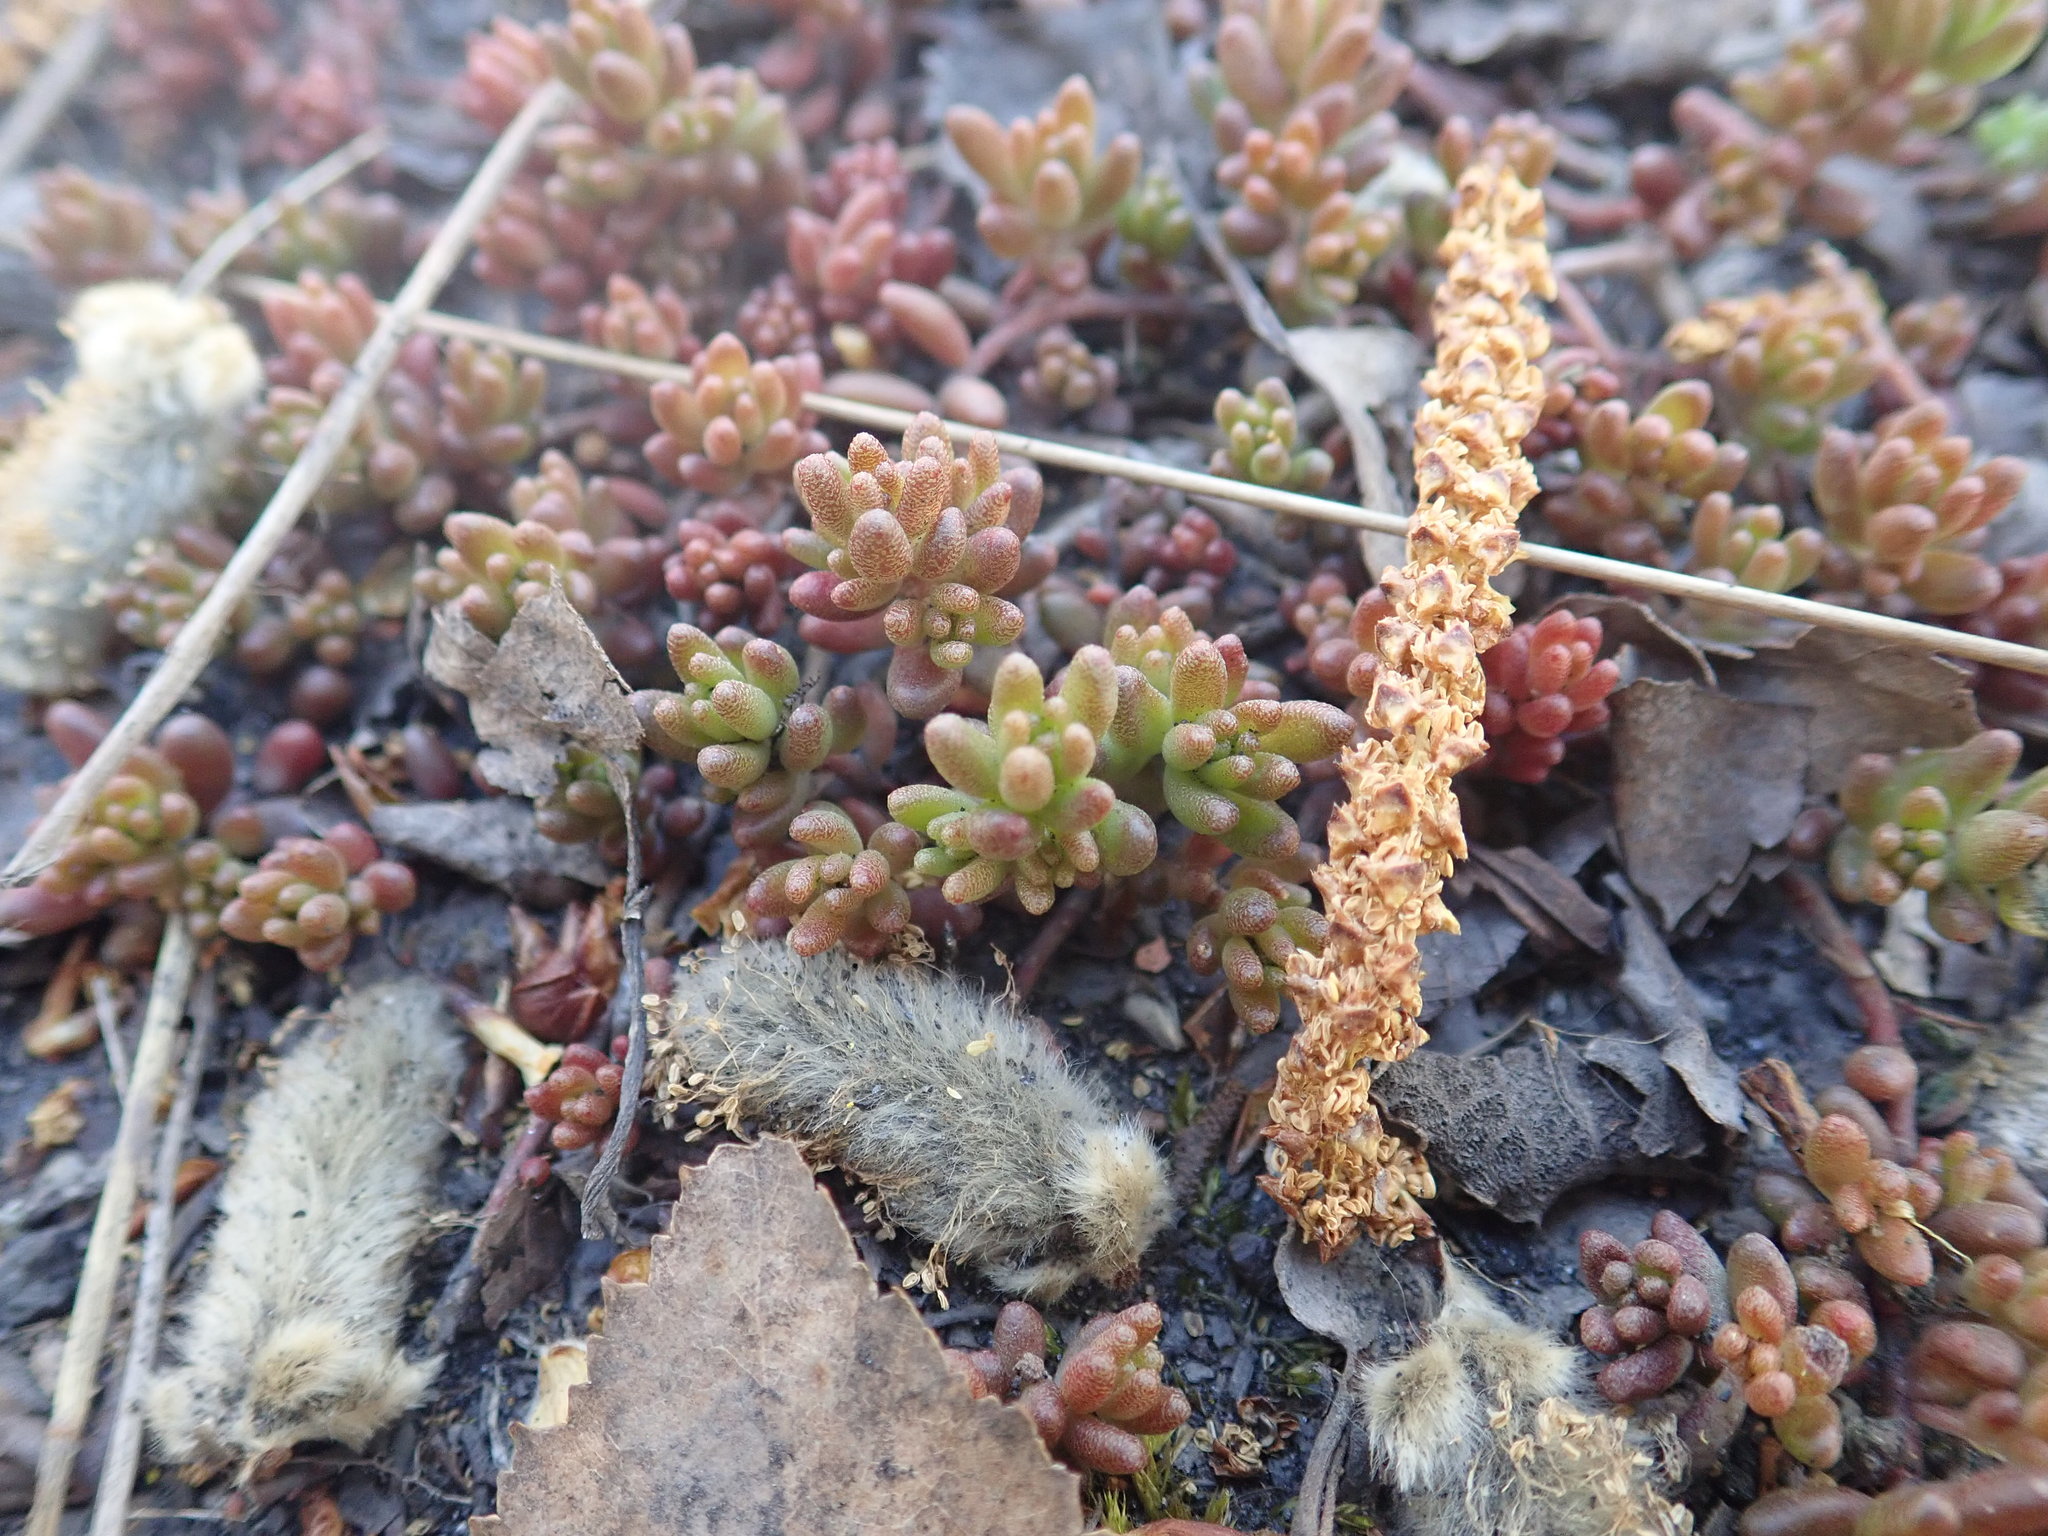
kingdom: Plantae
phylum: Tracheophyta
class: Magnoliopsida
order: Saxifragales
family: Crassulaceae
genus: Sedum
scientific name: Sedum album
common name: White stonecrop
